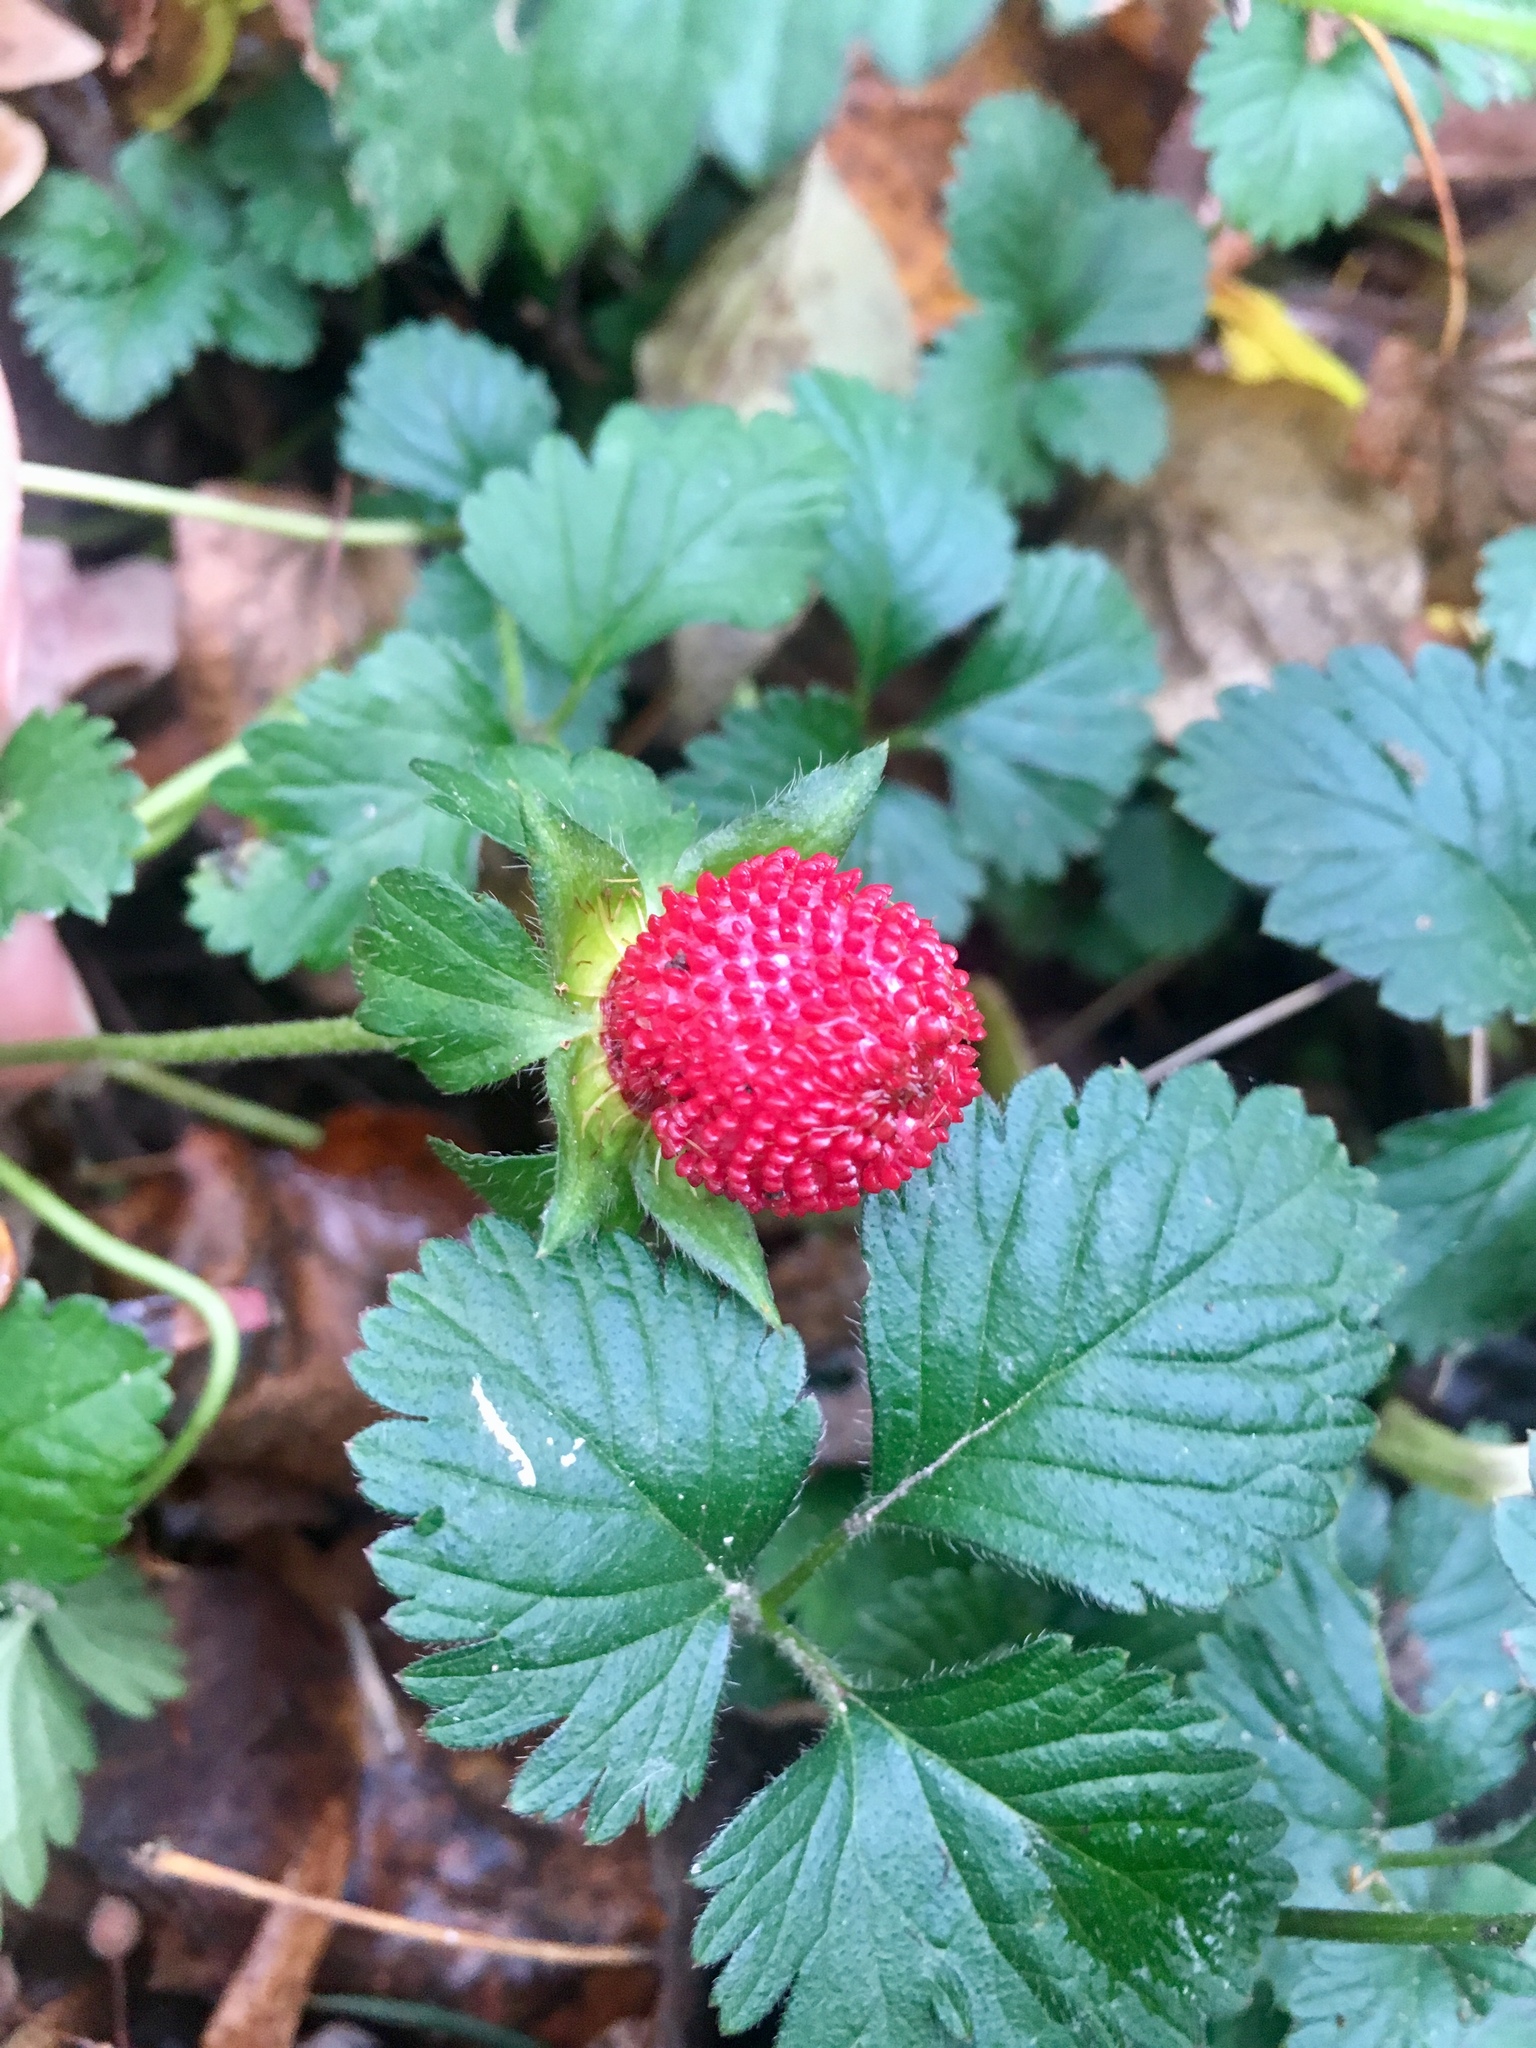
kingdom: Plantae
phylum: Tracheophyta
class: Magnoliopsida
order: Rosales
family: Rosaceae
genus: Potentilla
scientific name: Potentilla indica
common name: Yellow-flowered strawberry
